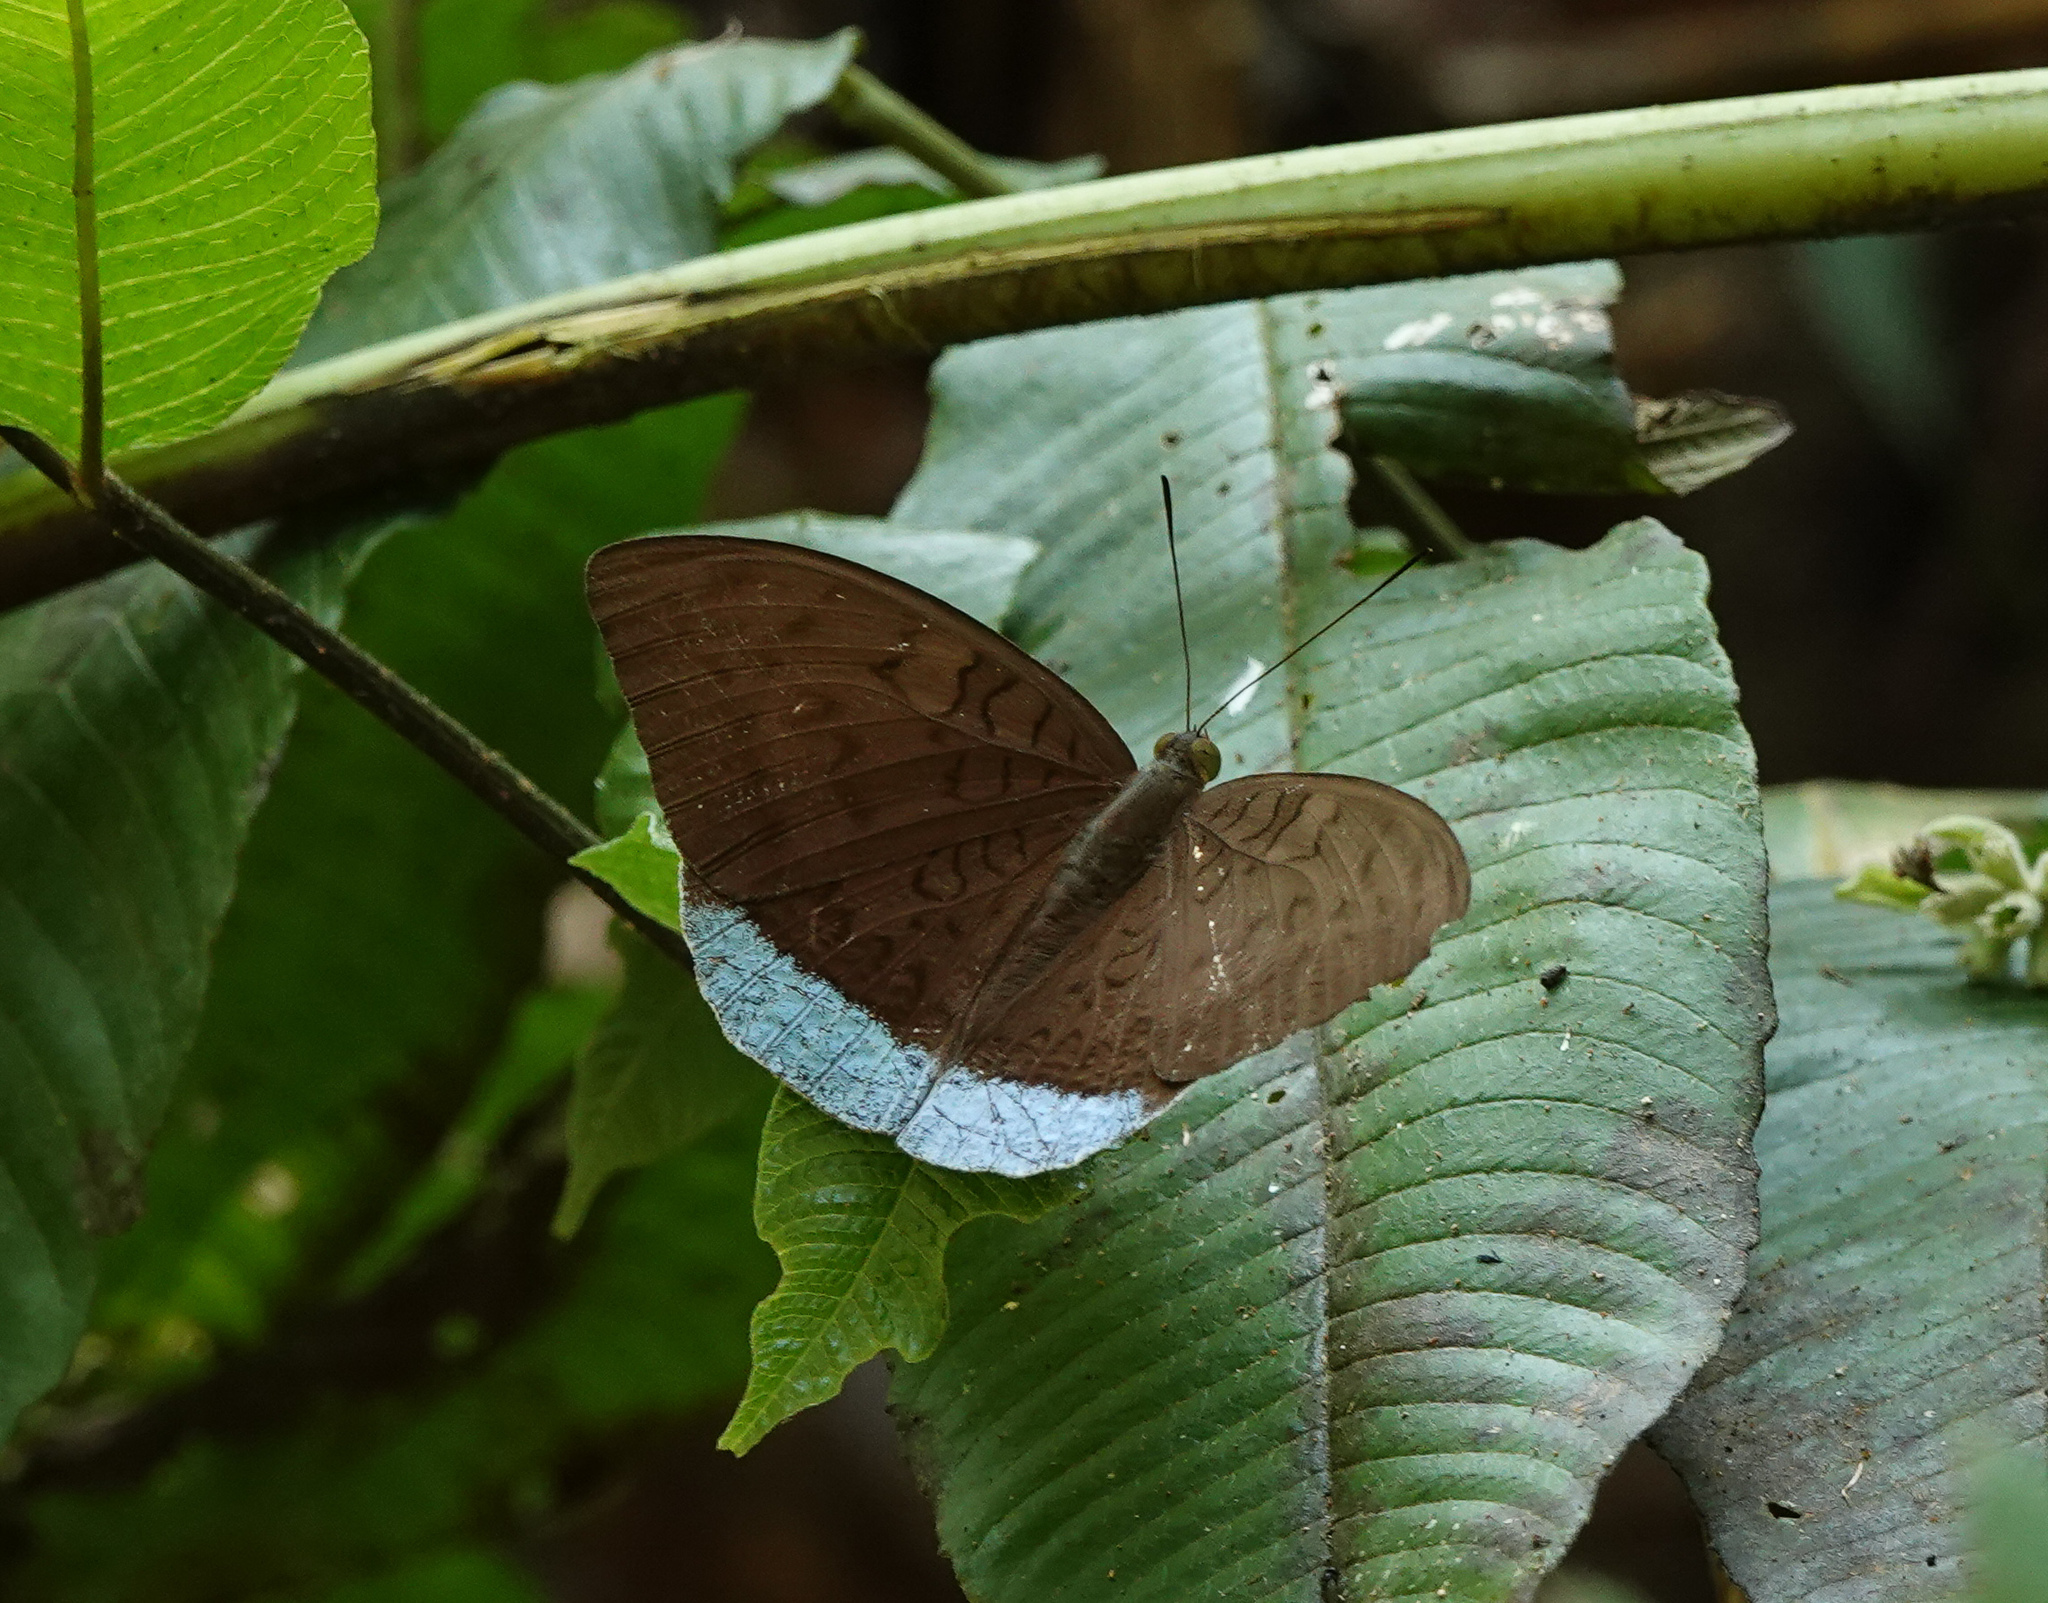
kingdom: Animalia
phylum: Arthropoda
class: Insecta
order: Lepidoptera
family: Nymphalidae
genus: Tanaecia
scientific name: Tanaecia julii
